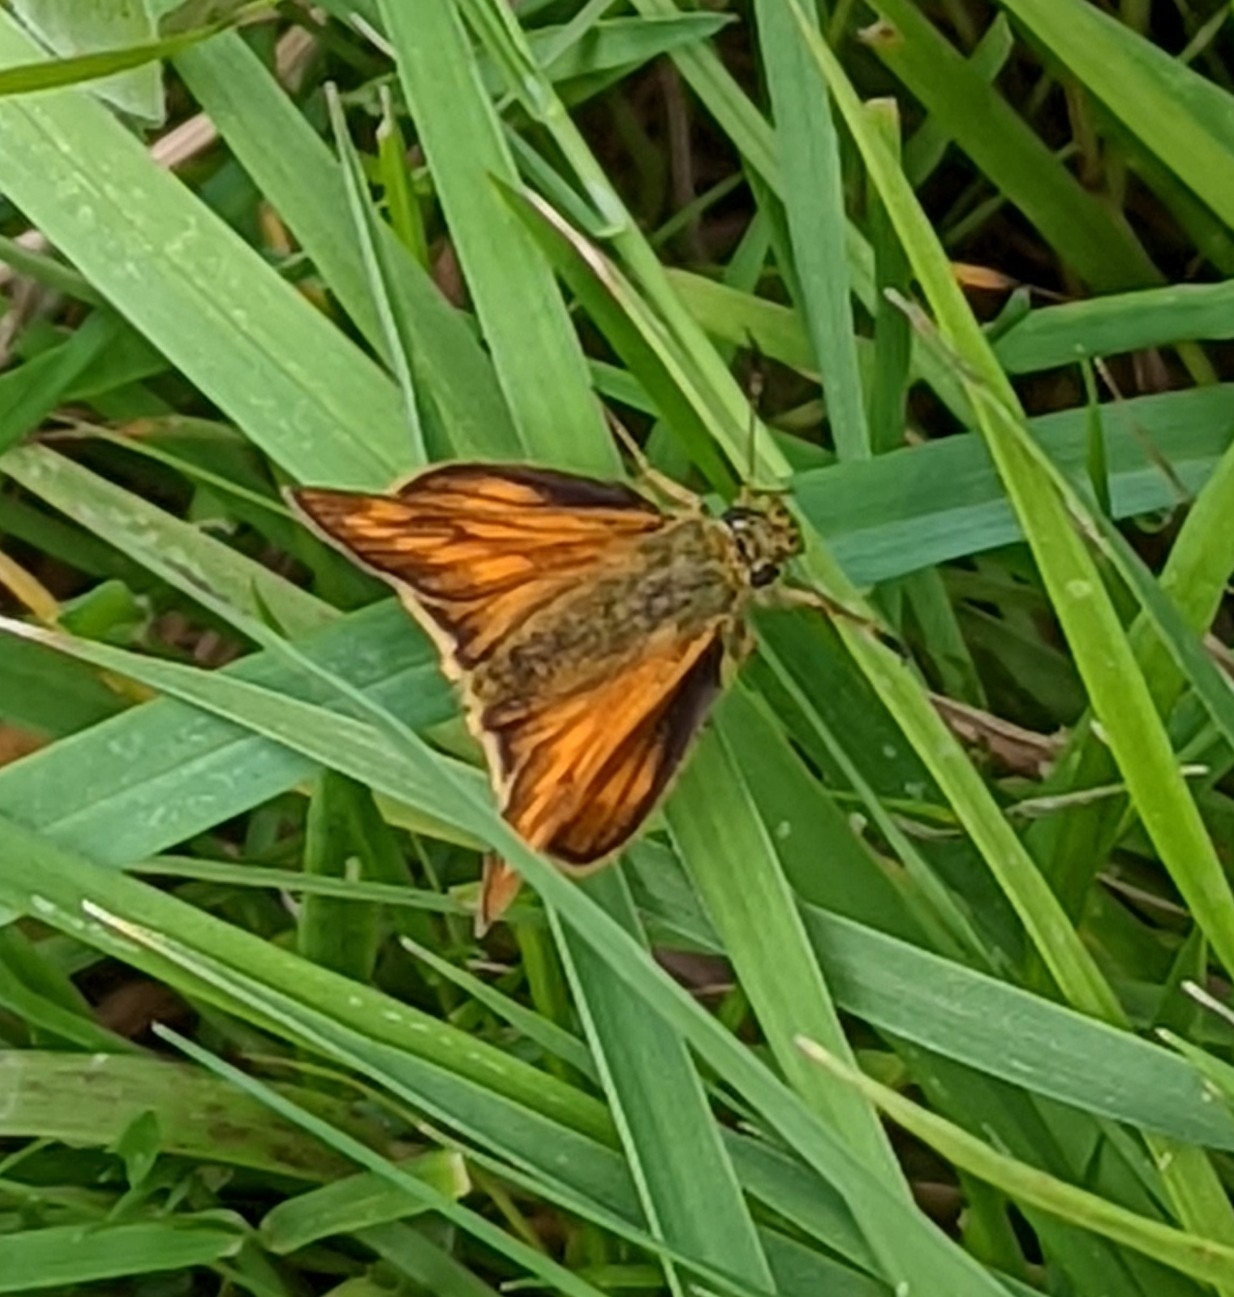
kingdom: Animalia
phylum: Arthropoda
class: Insecta
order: Lepidoptera
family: Hesperiidae
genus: Ochlodes
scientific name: Ochlodes venata
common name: Large skipper
